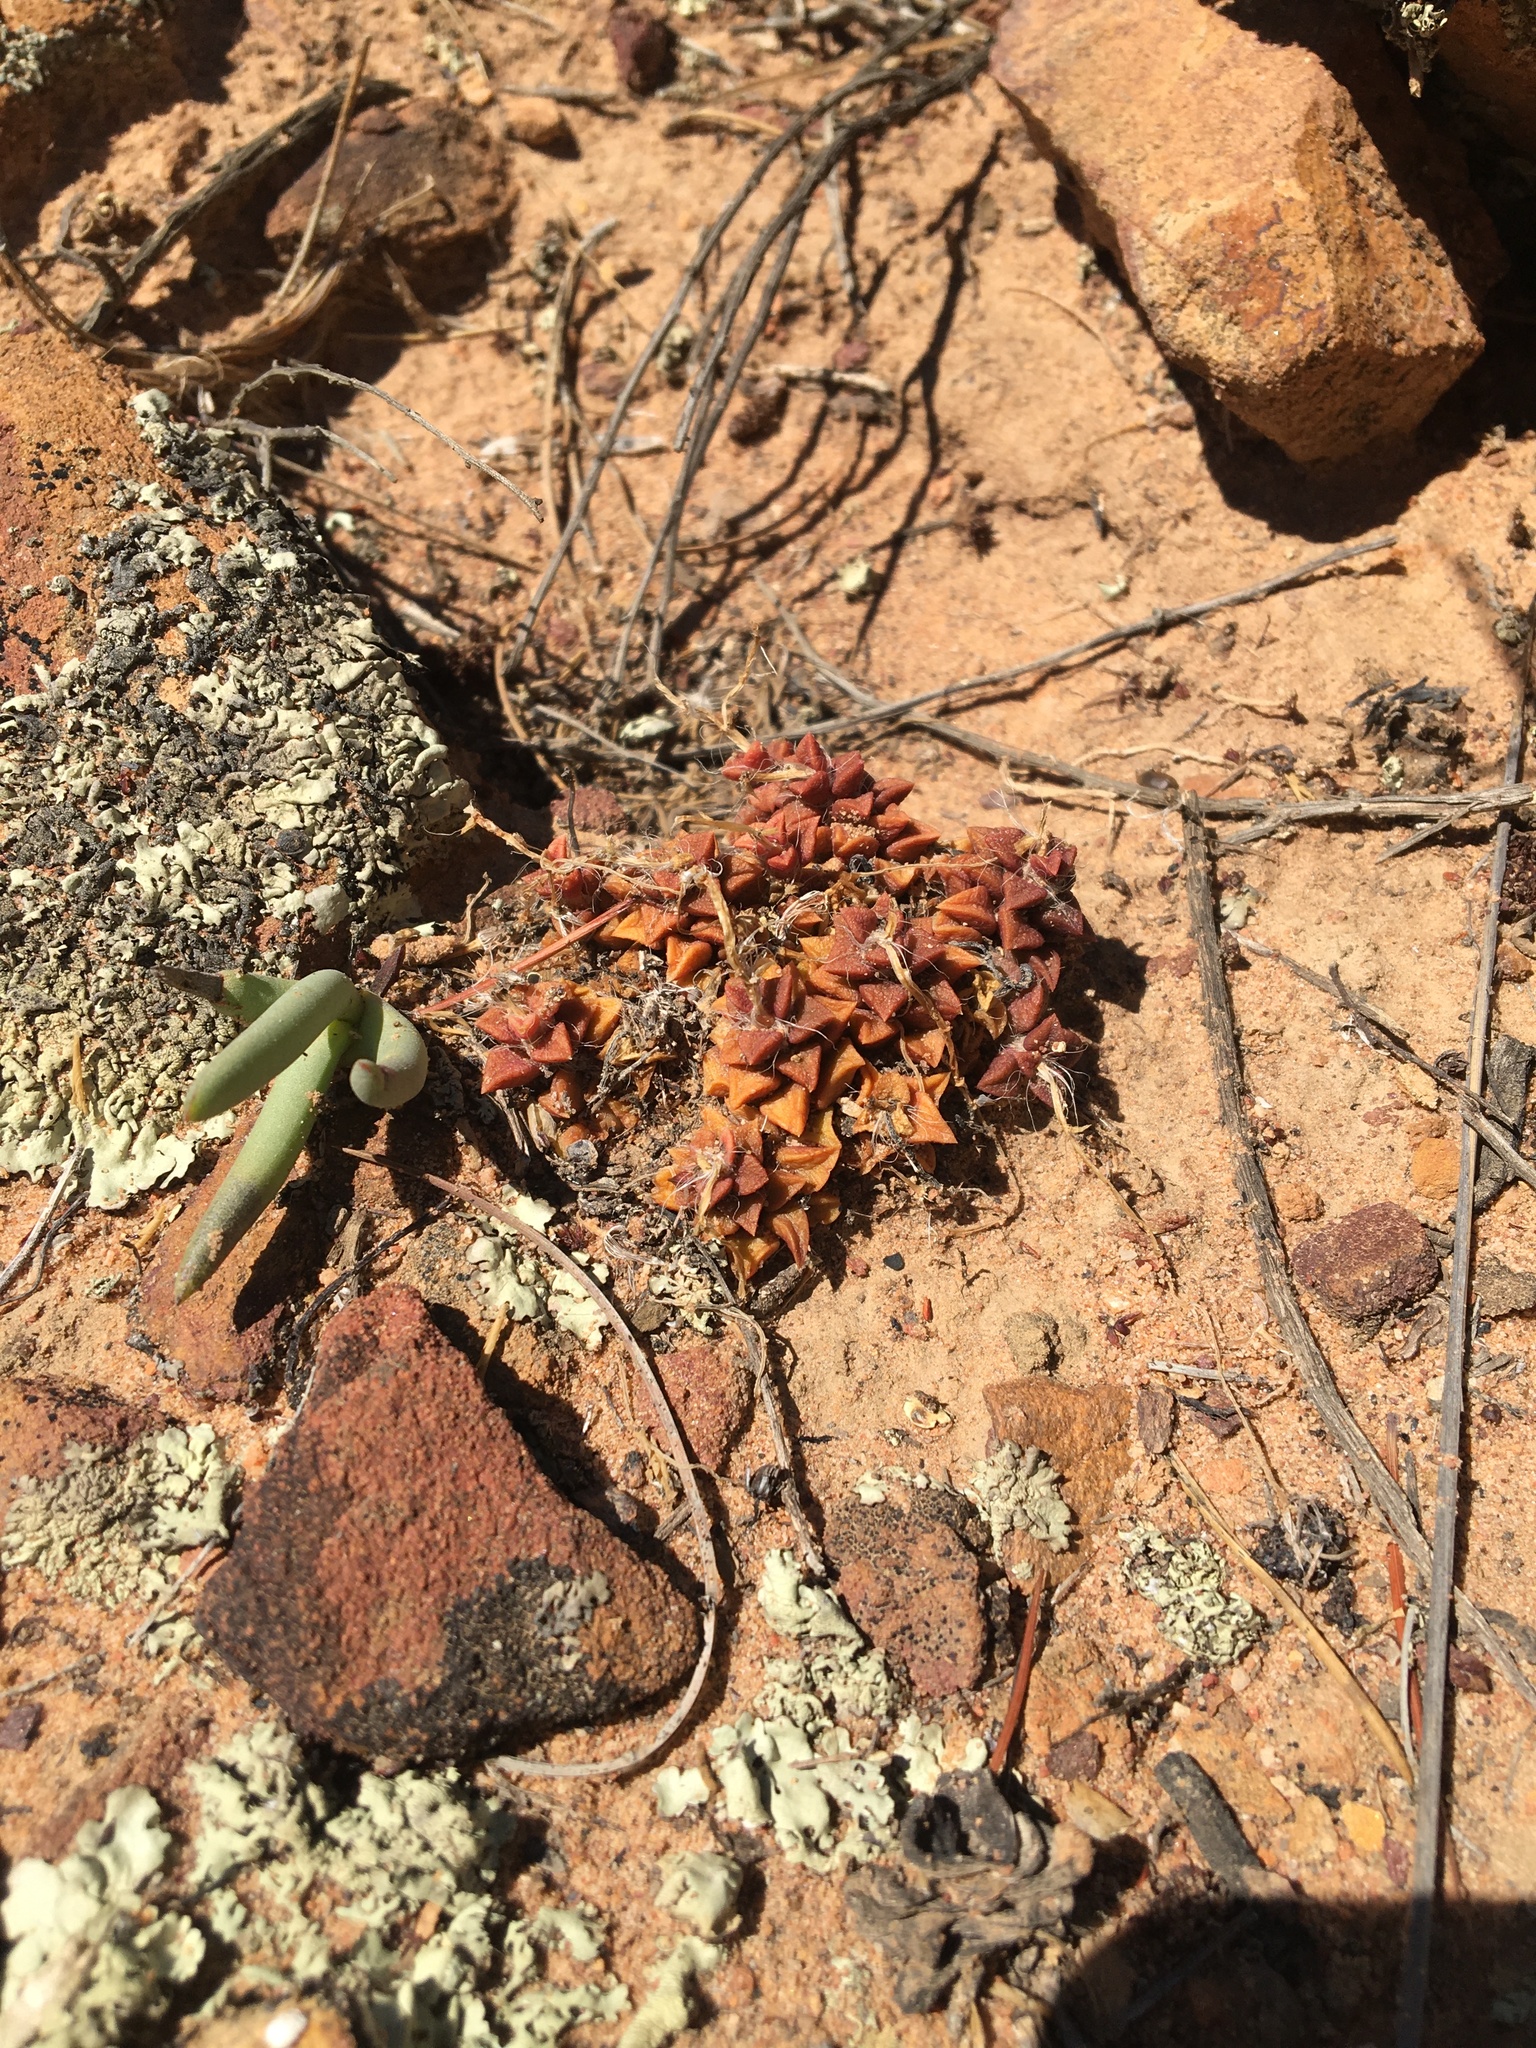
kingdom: Plantae
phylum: Tracheophyta
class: Magnoliopsida
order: Caryophyllales
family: Anacampserotaceae
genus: Anacampseros
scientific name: Anacampseros retusa
